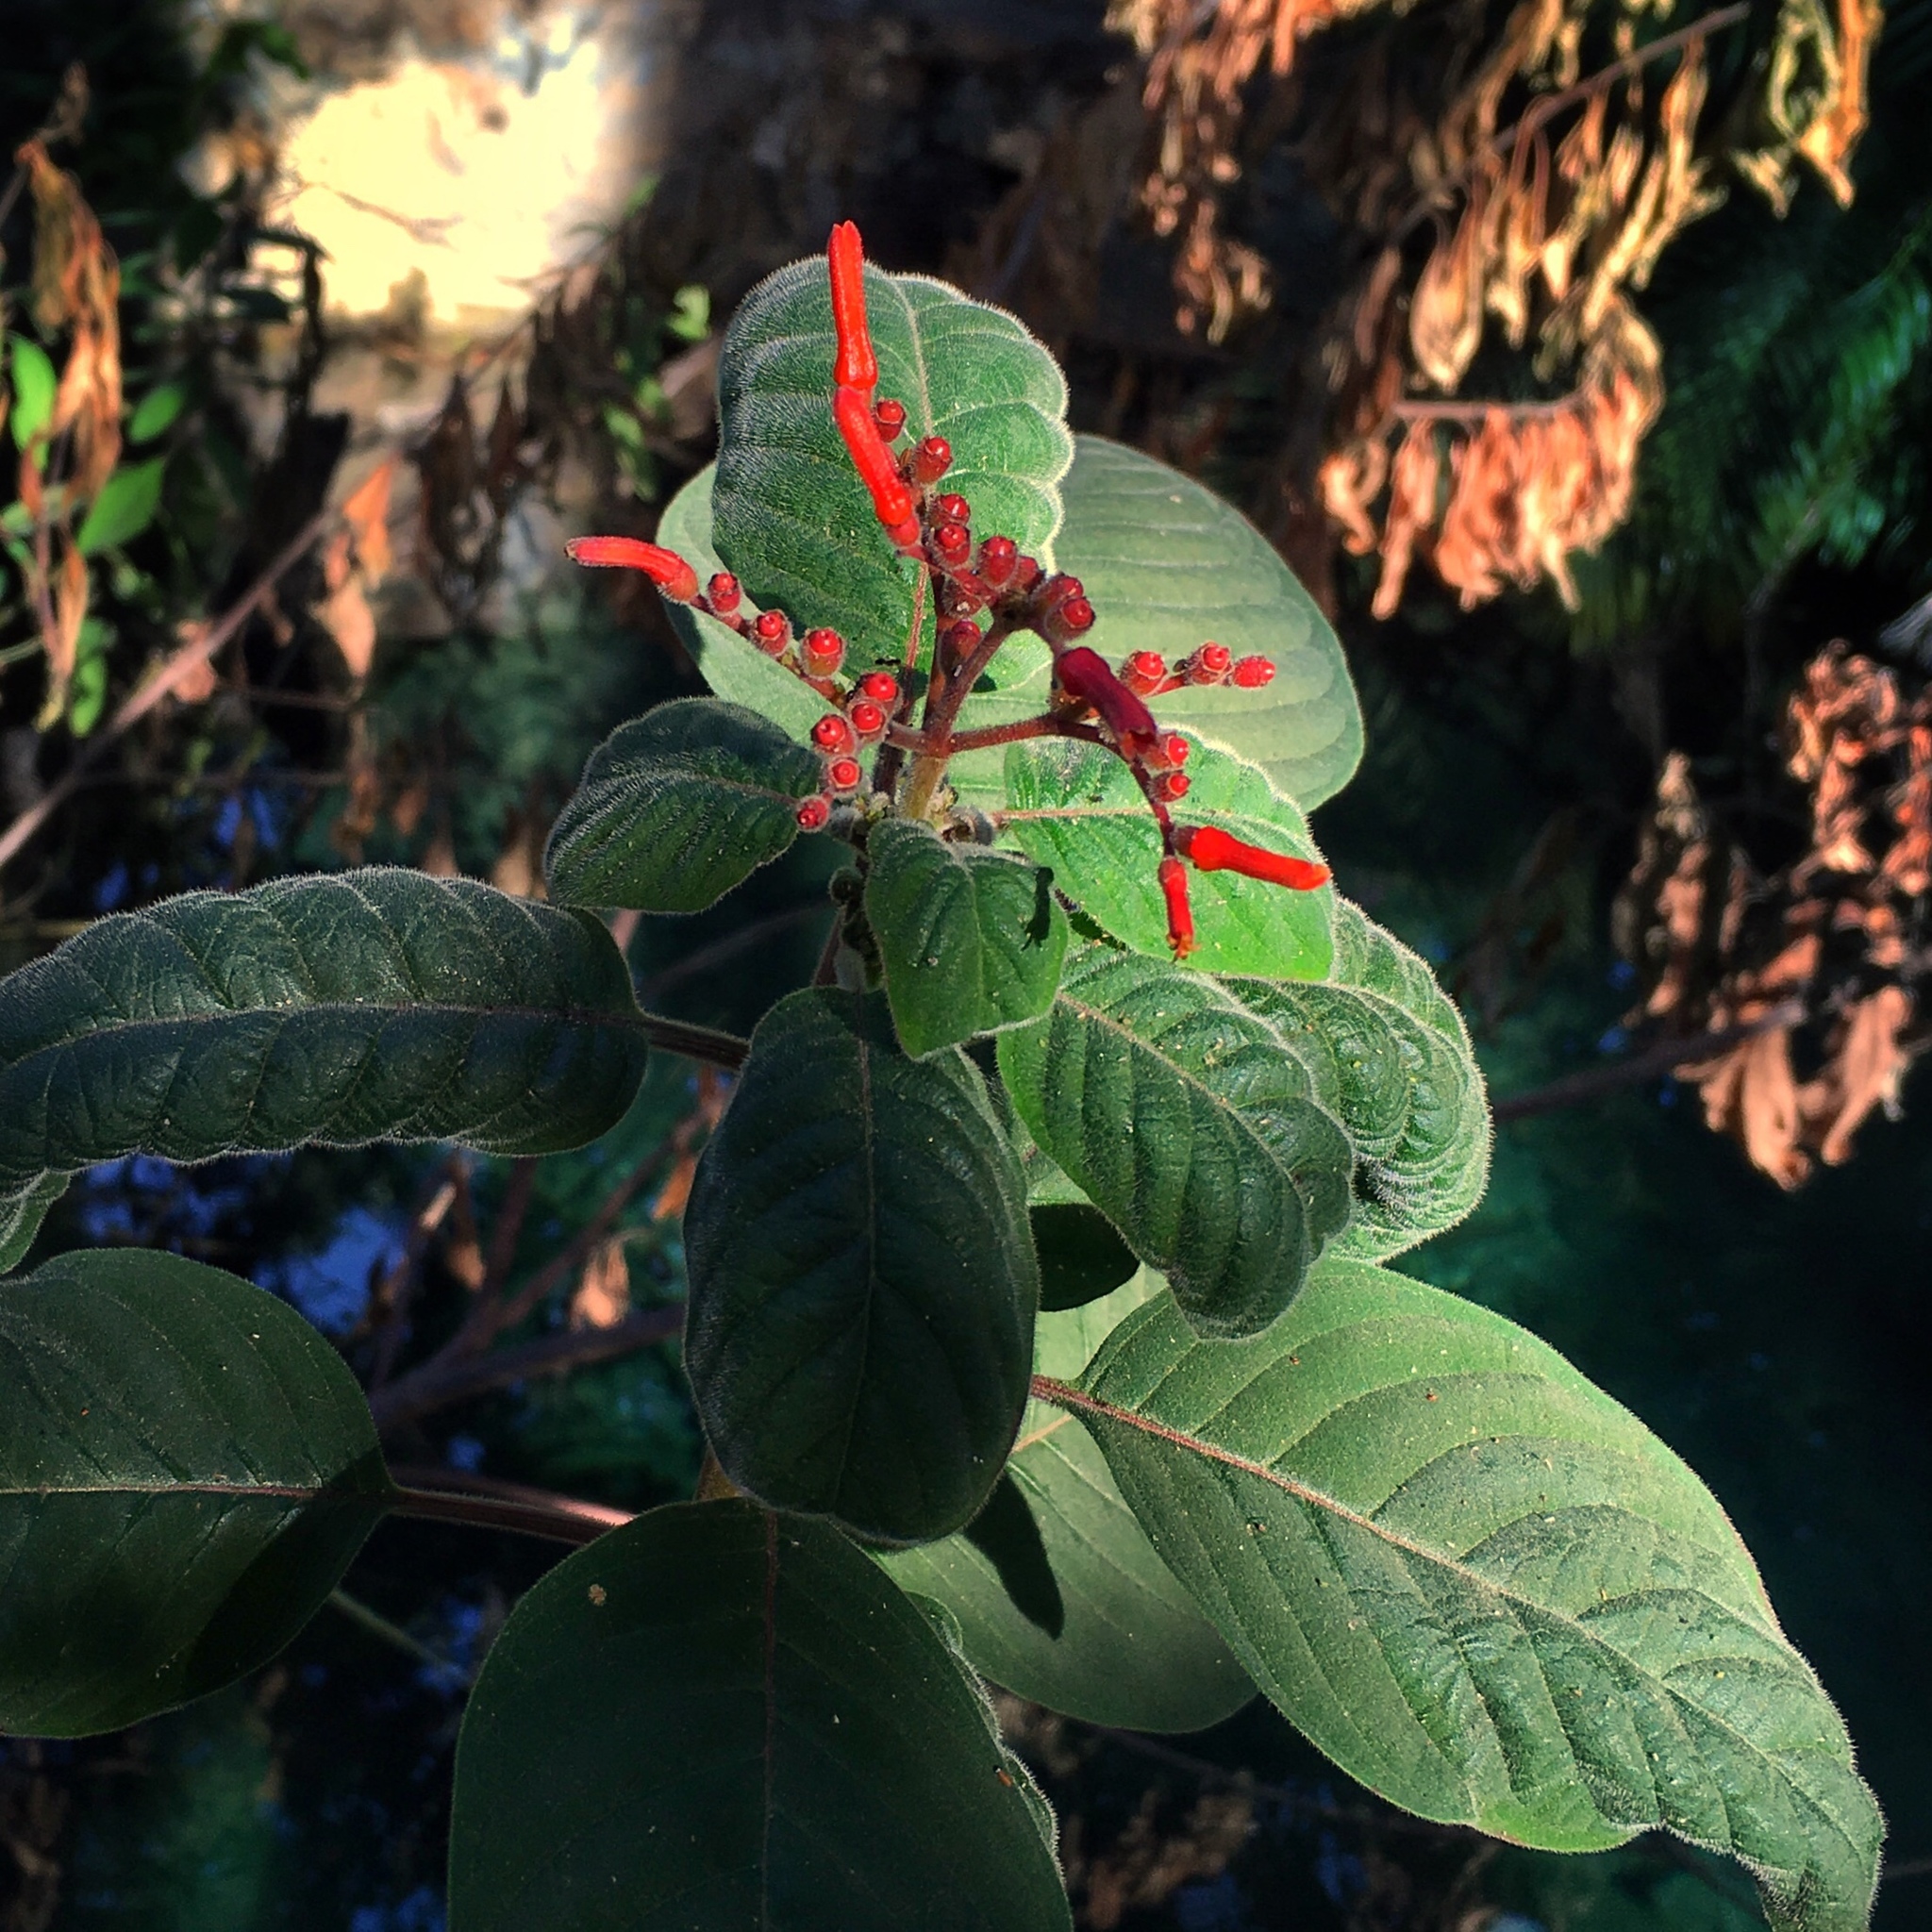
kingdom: Plantae
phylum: Tracheophyta
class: Magnoliopsida
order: Gentianales
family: Rubiaceae
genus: Hamelia
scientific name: Hamelia patens
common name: Redhead
